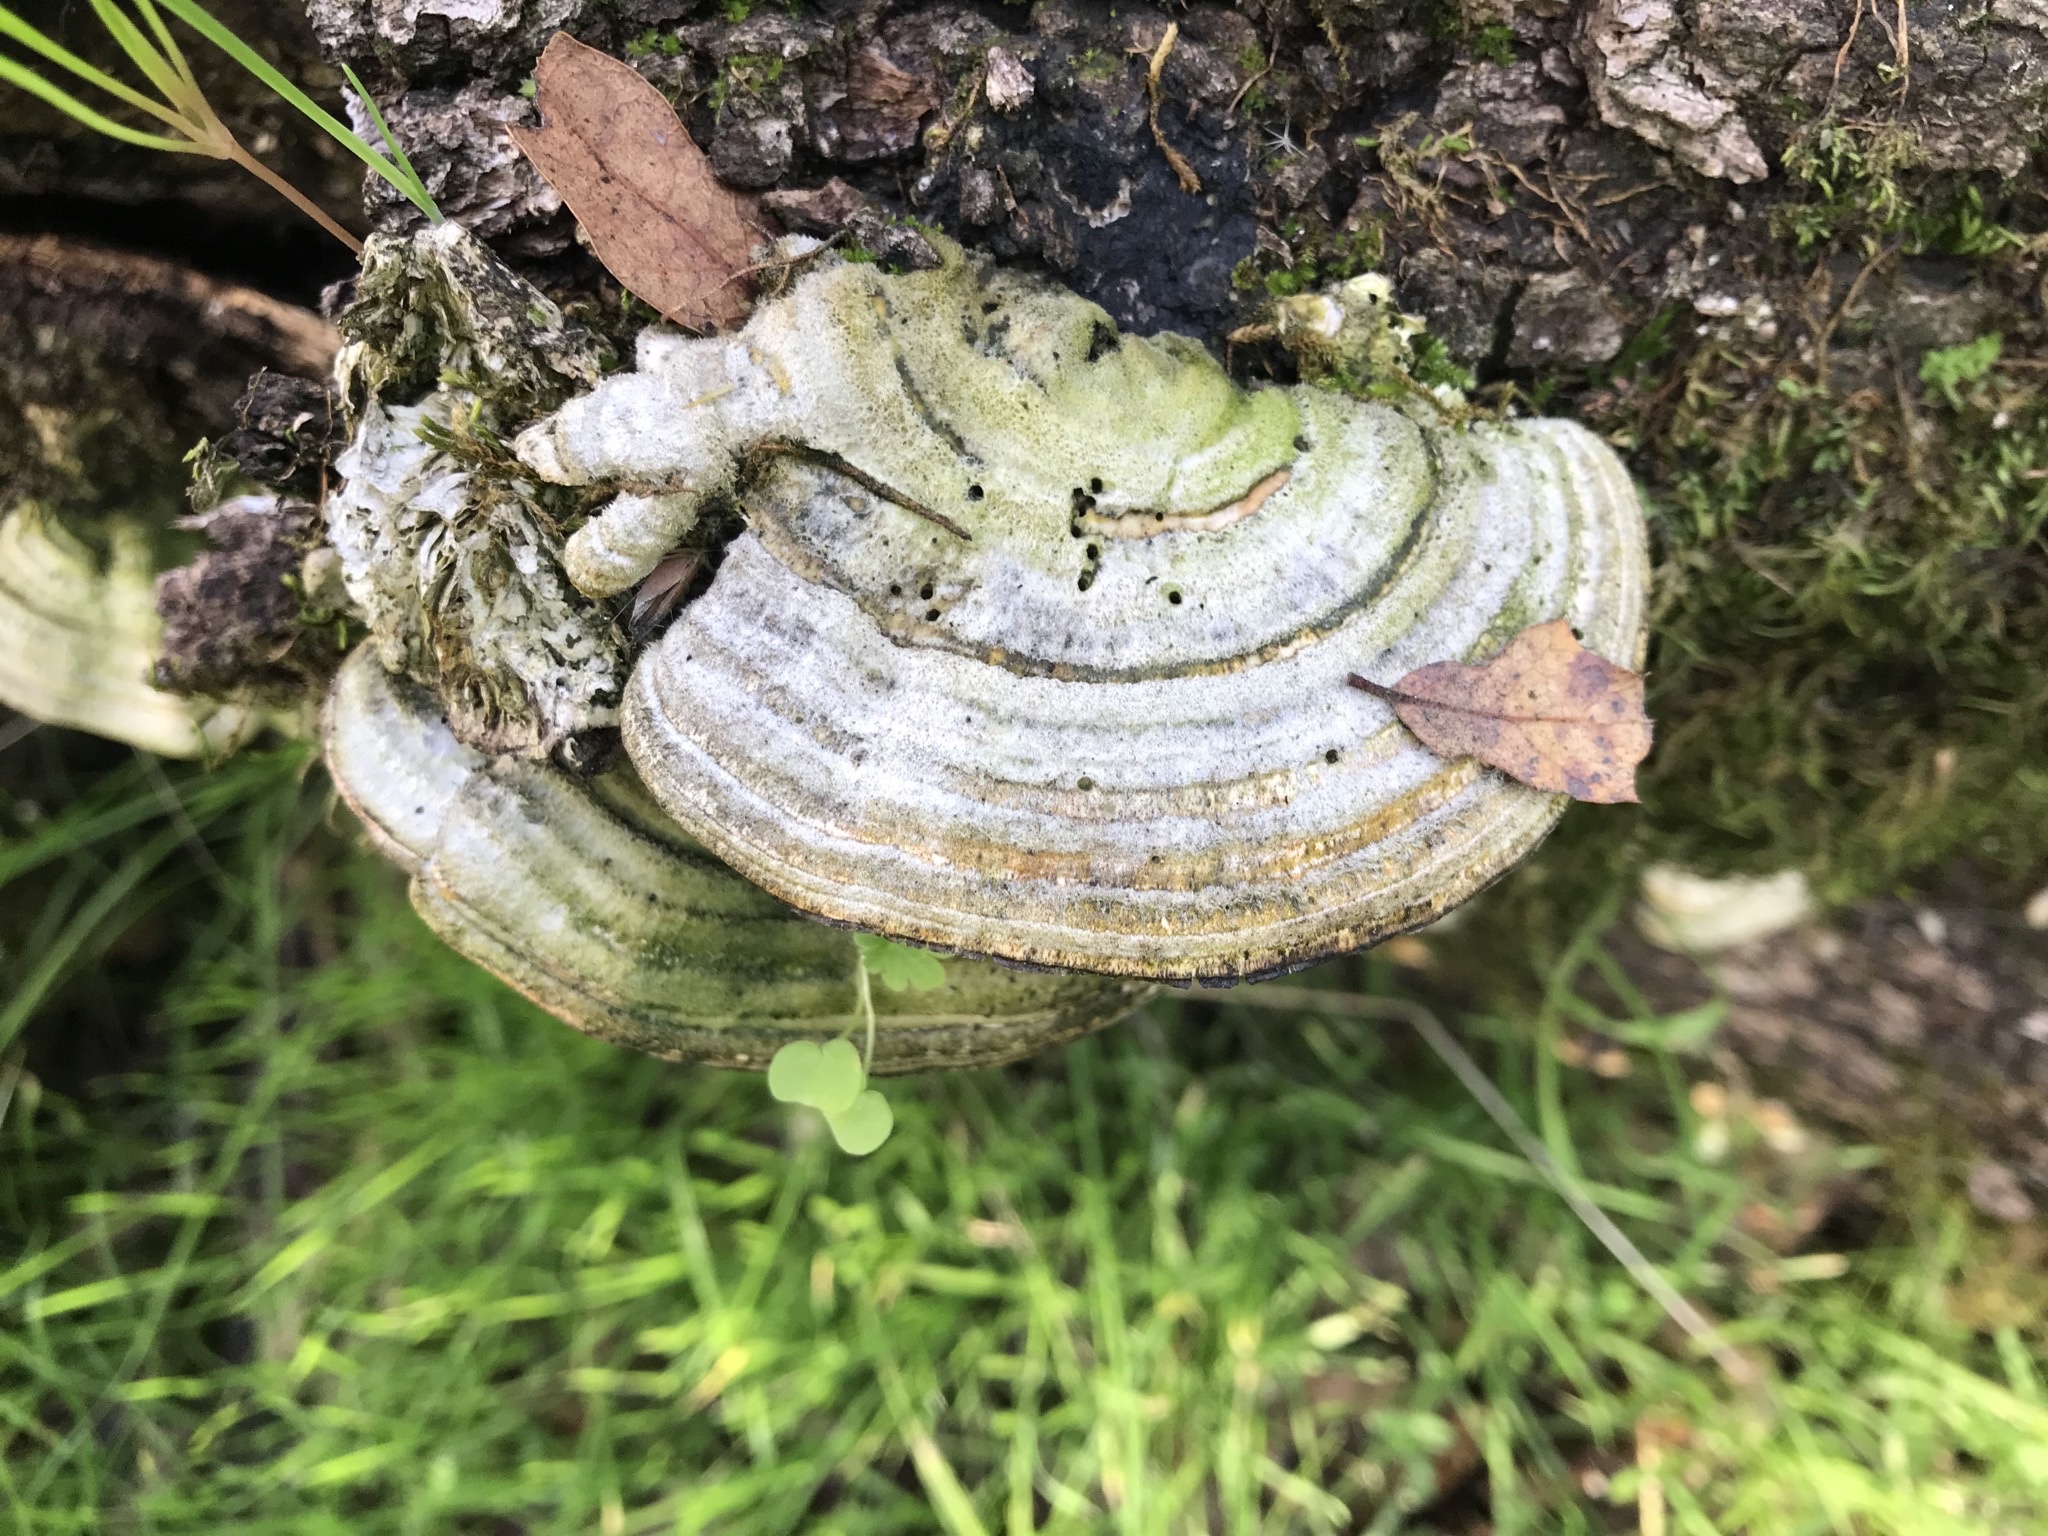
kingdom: Fungi
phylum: Basidiomycota
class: Agaricomycetes
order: Polyporales
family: Polyporaceae
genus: Lenzites
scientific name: Lenzites betulinus
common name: Birch mazegill
